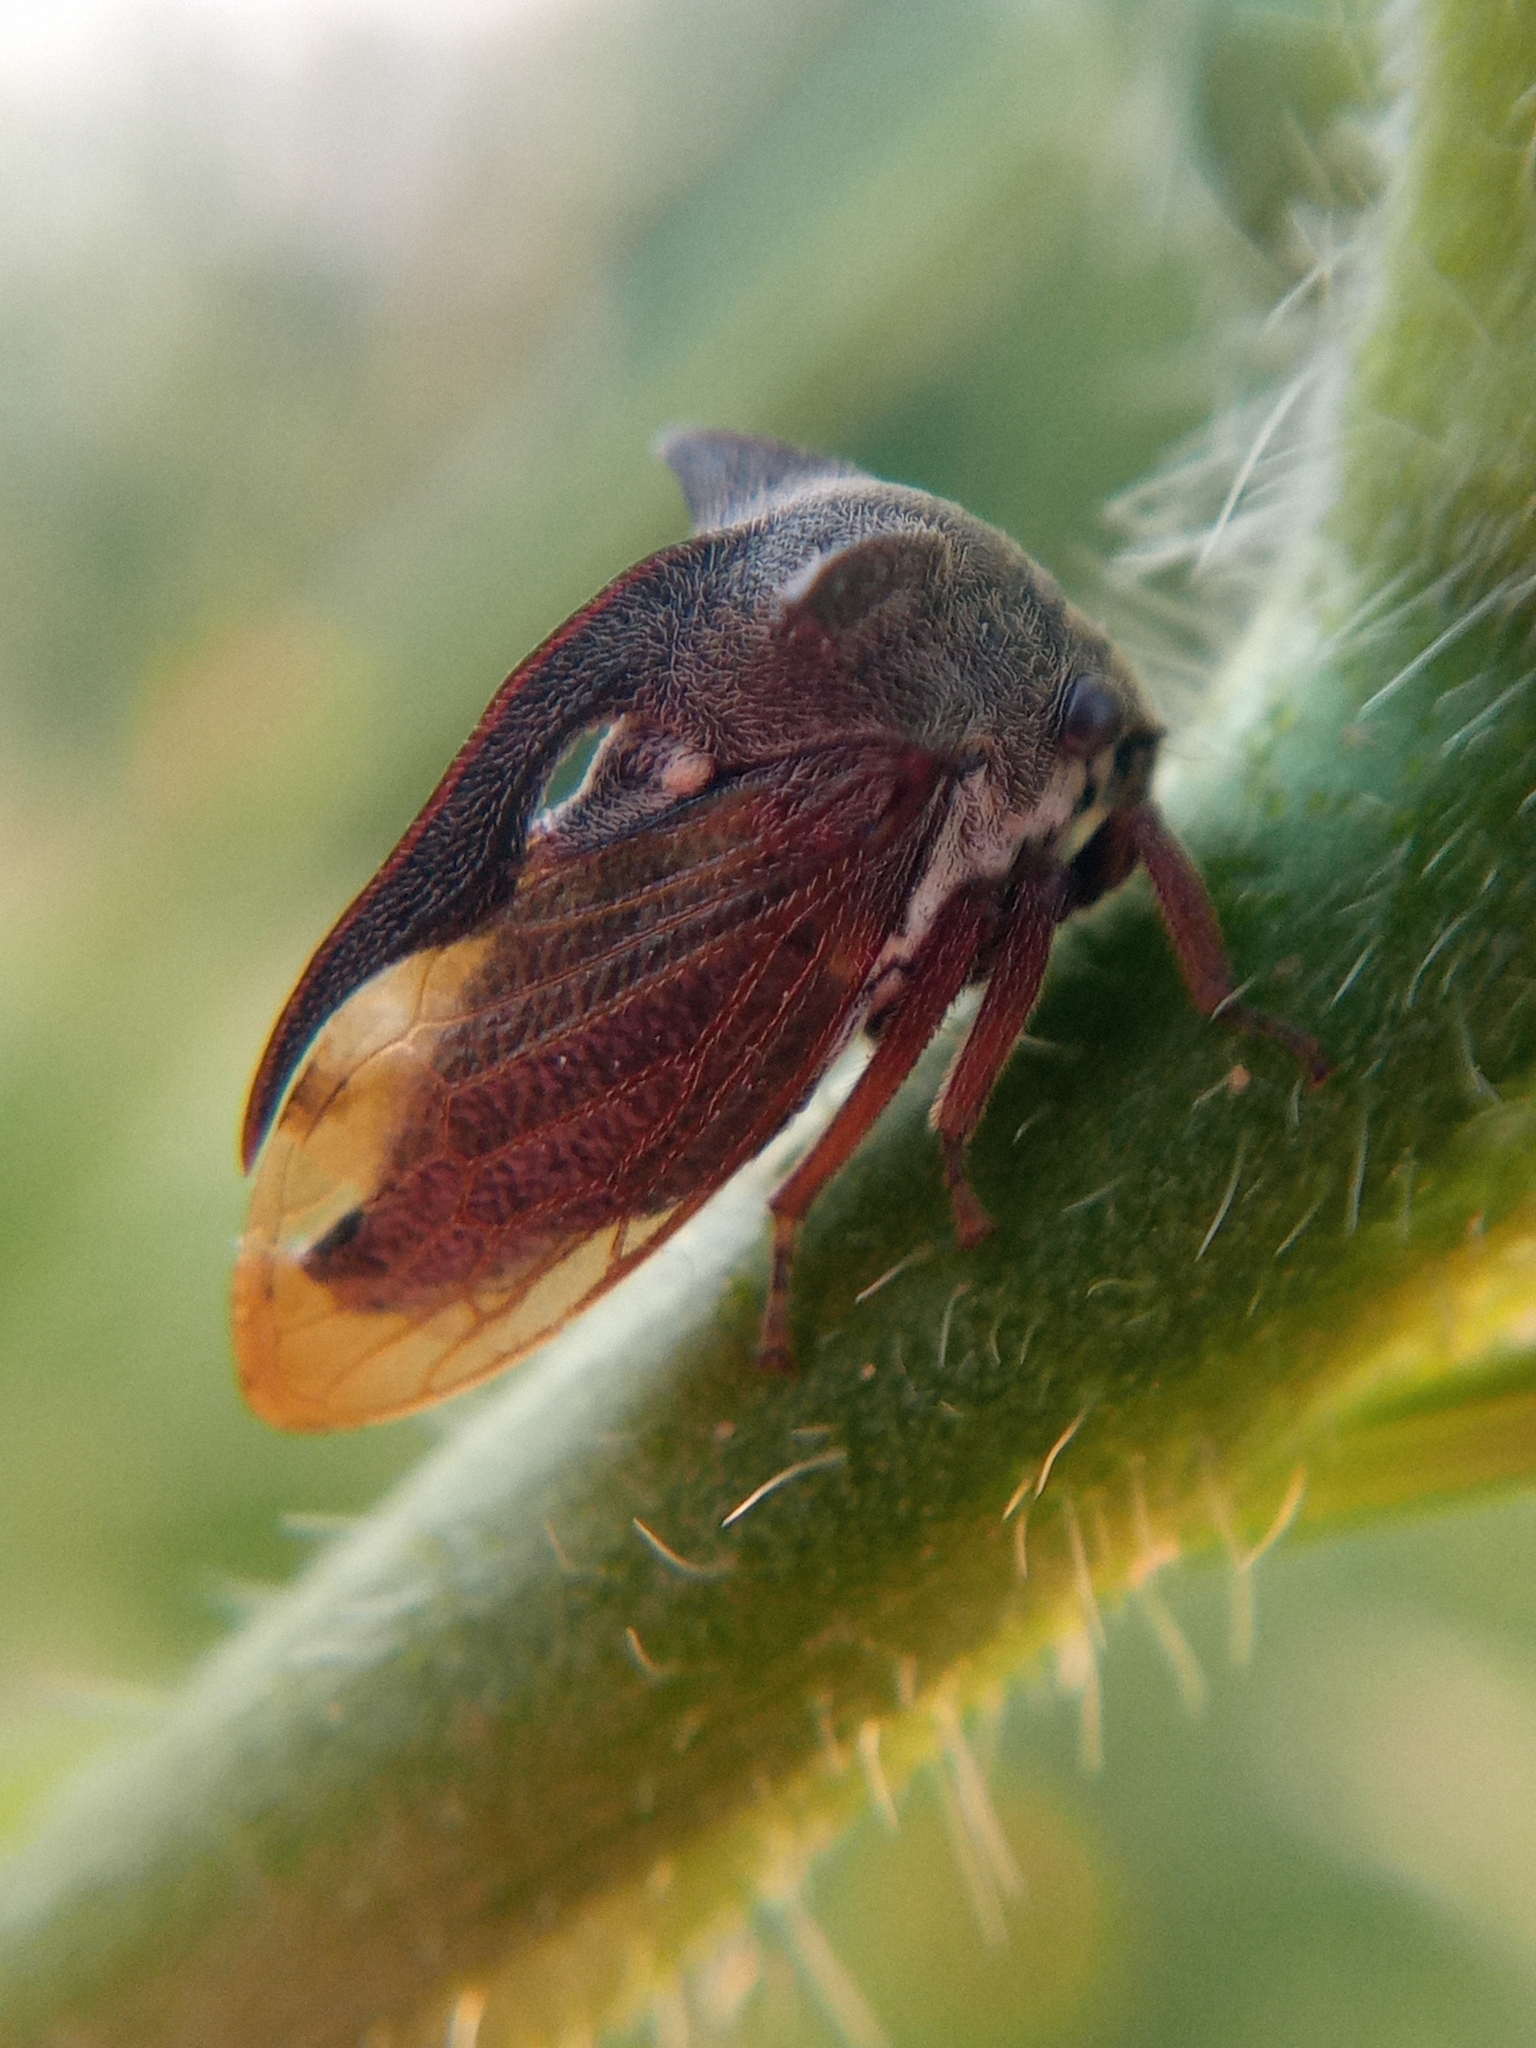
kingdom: Animalia
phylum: Arthropoda
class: Insecta
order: Hemiptera
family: Membracidae
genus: Centrotus
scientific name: Centrotus cornuta
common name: Treehopper
